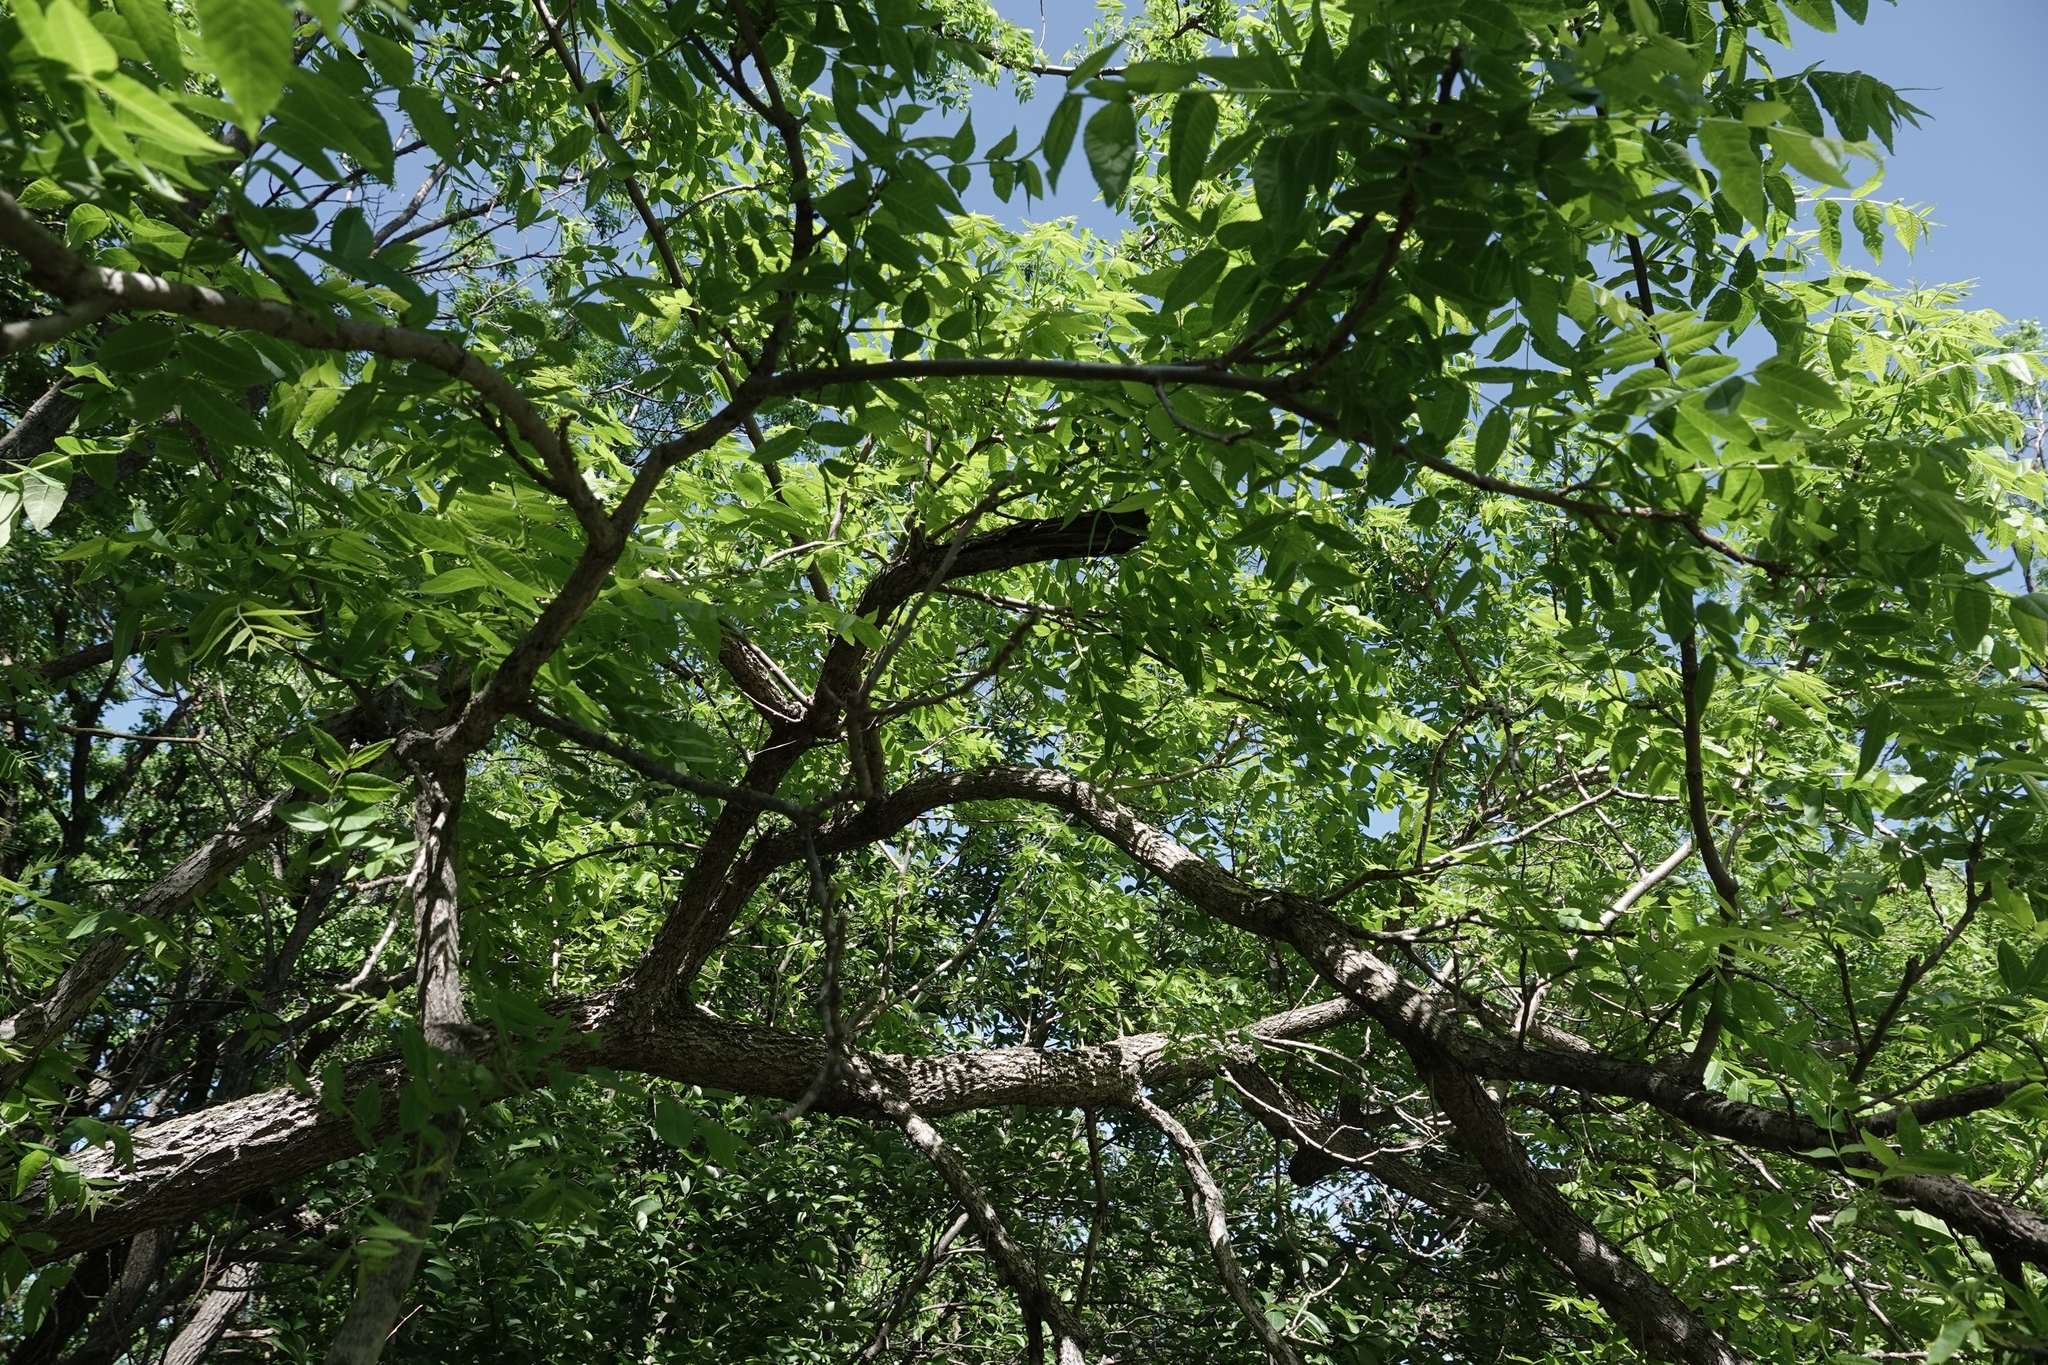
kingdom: Plantae
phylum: Tracheophyta
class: Magnoliopsida
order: Fagales
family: Juglandaceae
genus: Juglans
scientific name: Juglans nigra
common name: Black walnut
